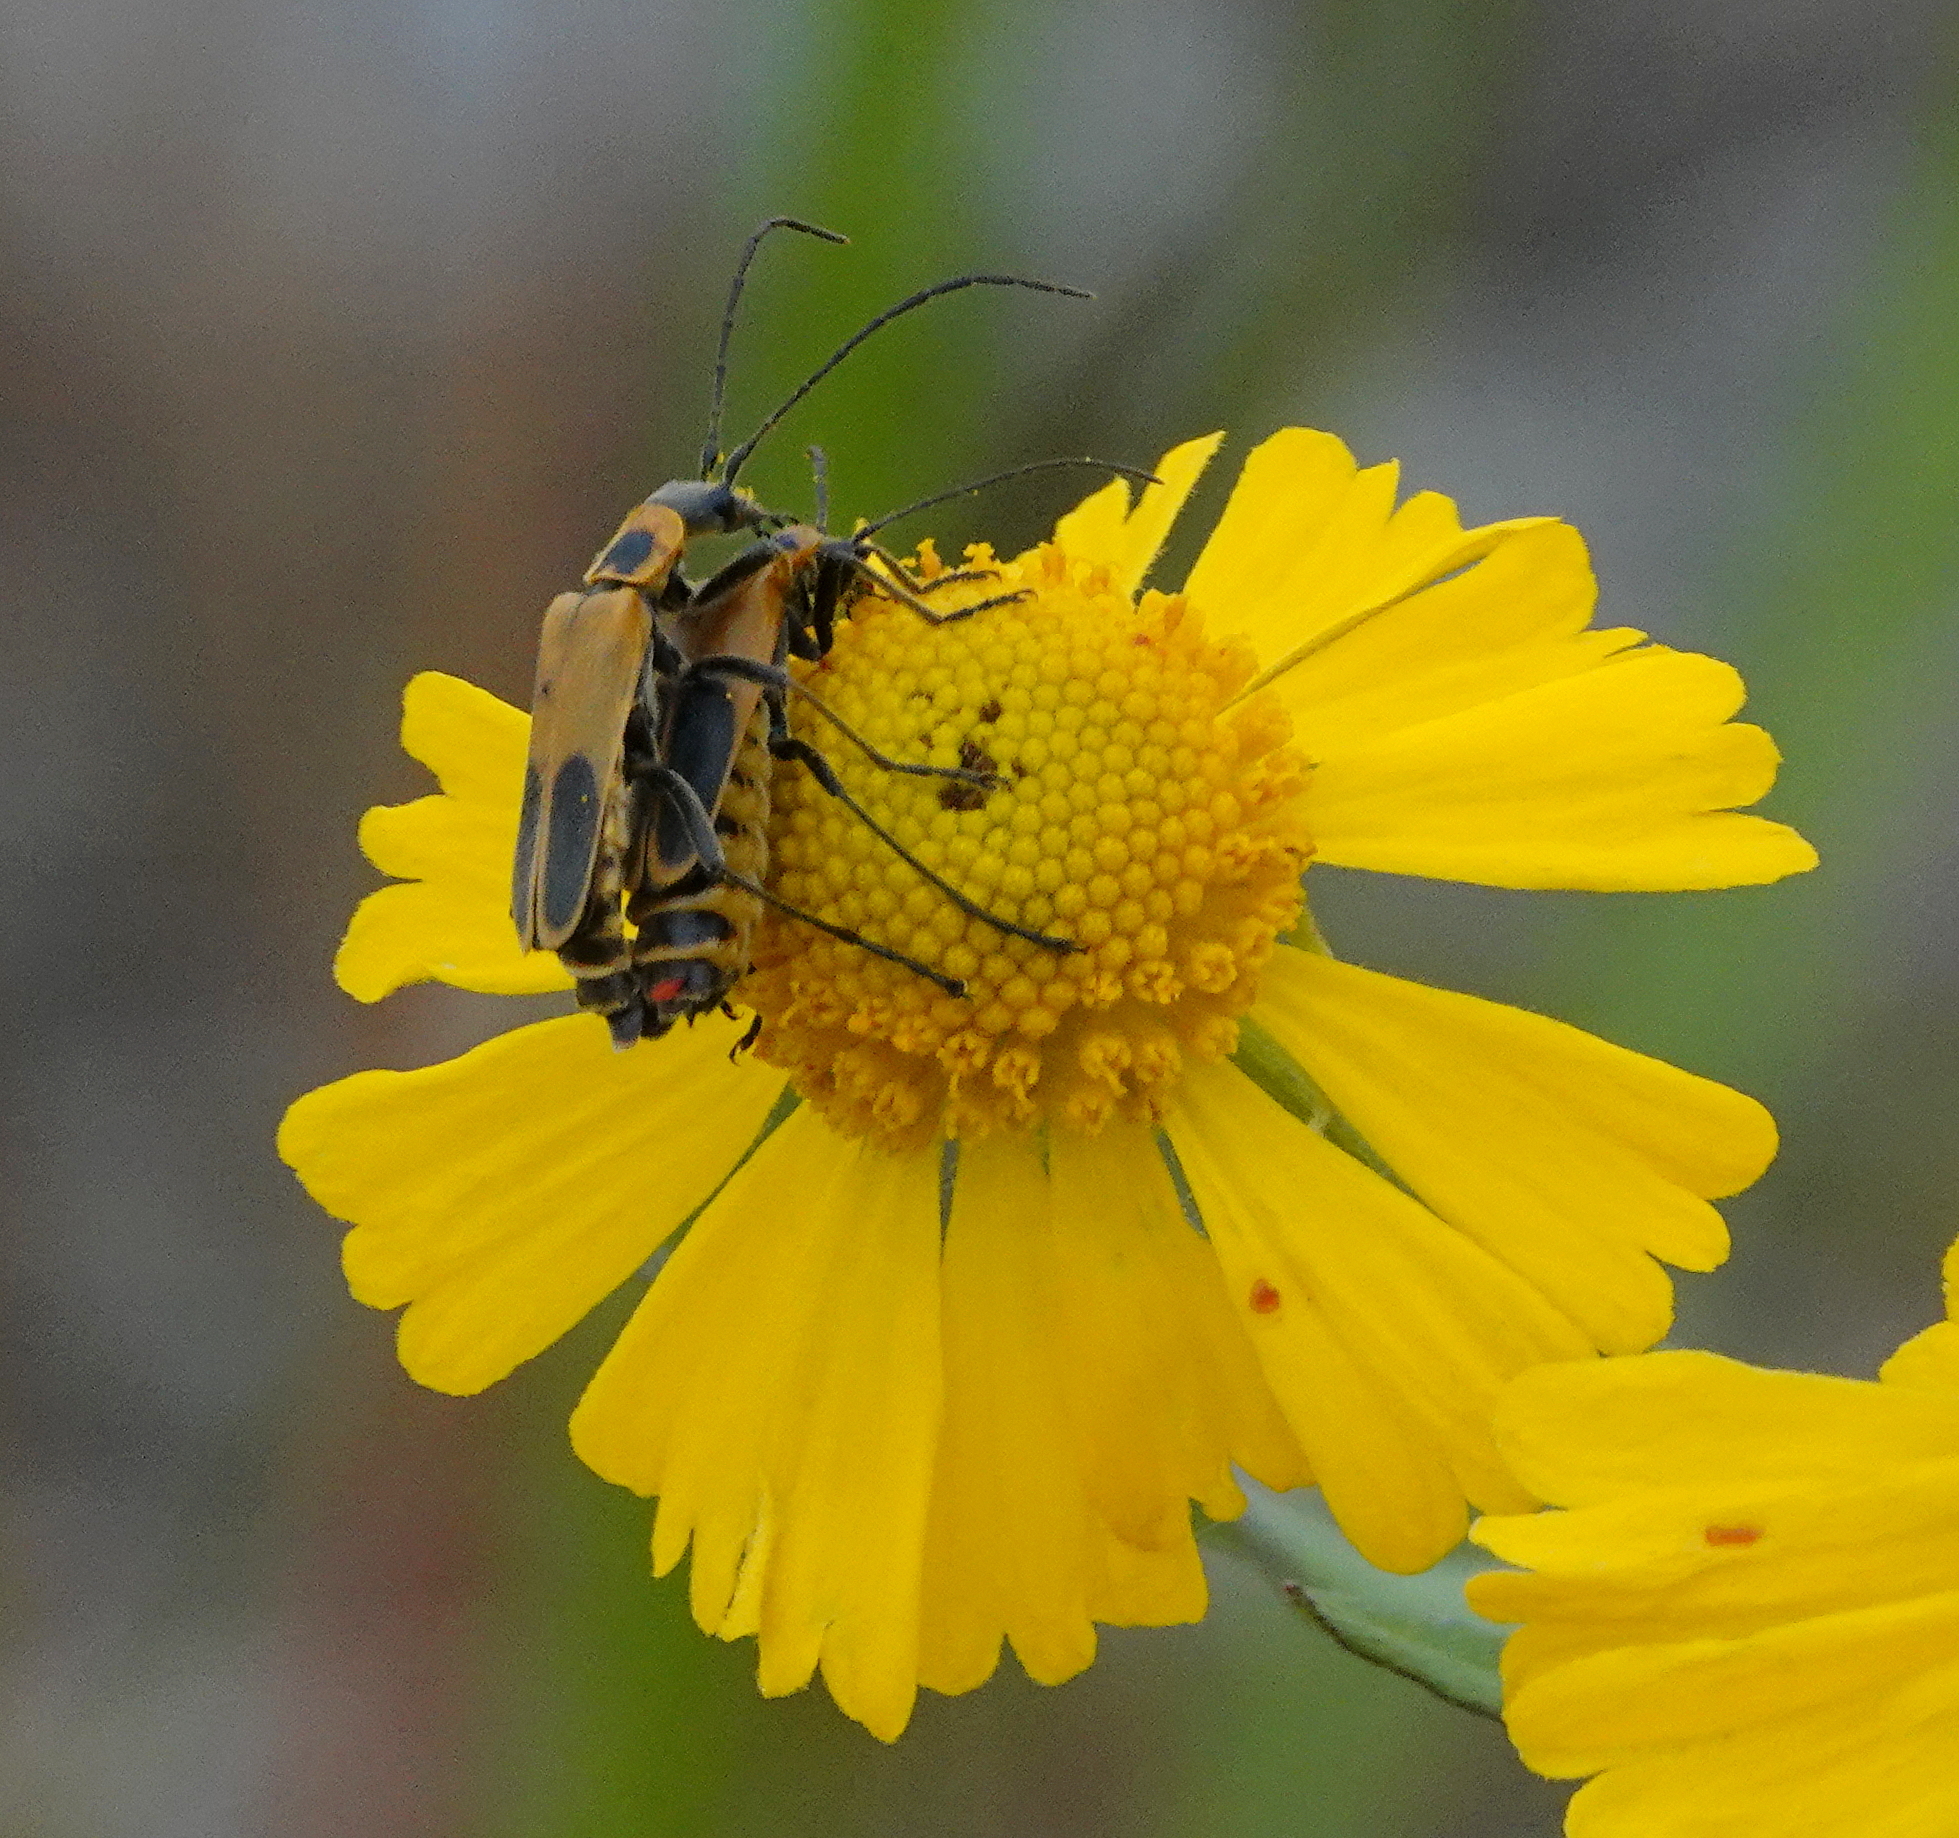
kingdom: Animalia
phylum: Arthropoda
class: Insecta
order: Coleoptera
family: Cantharidae
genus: Chauliognathus
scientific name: Chauliognathus pensylvanicus
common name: Goldenrod soldier beetle
